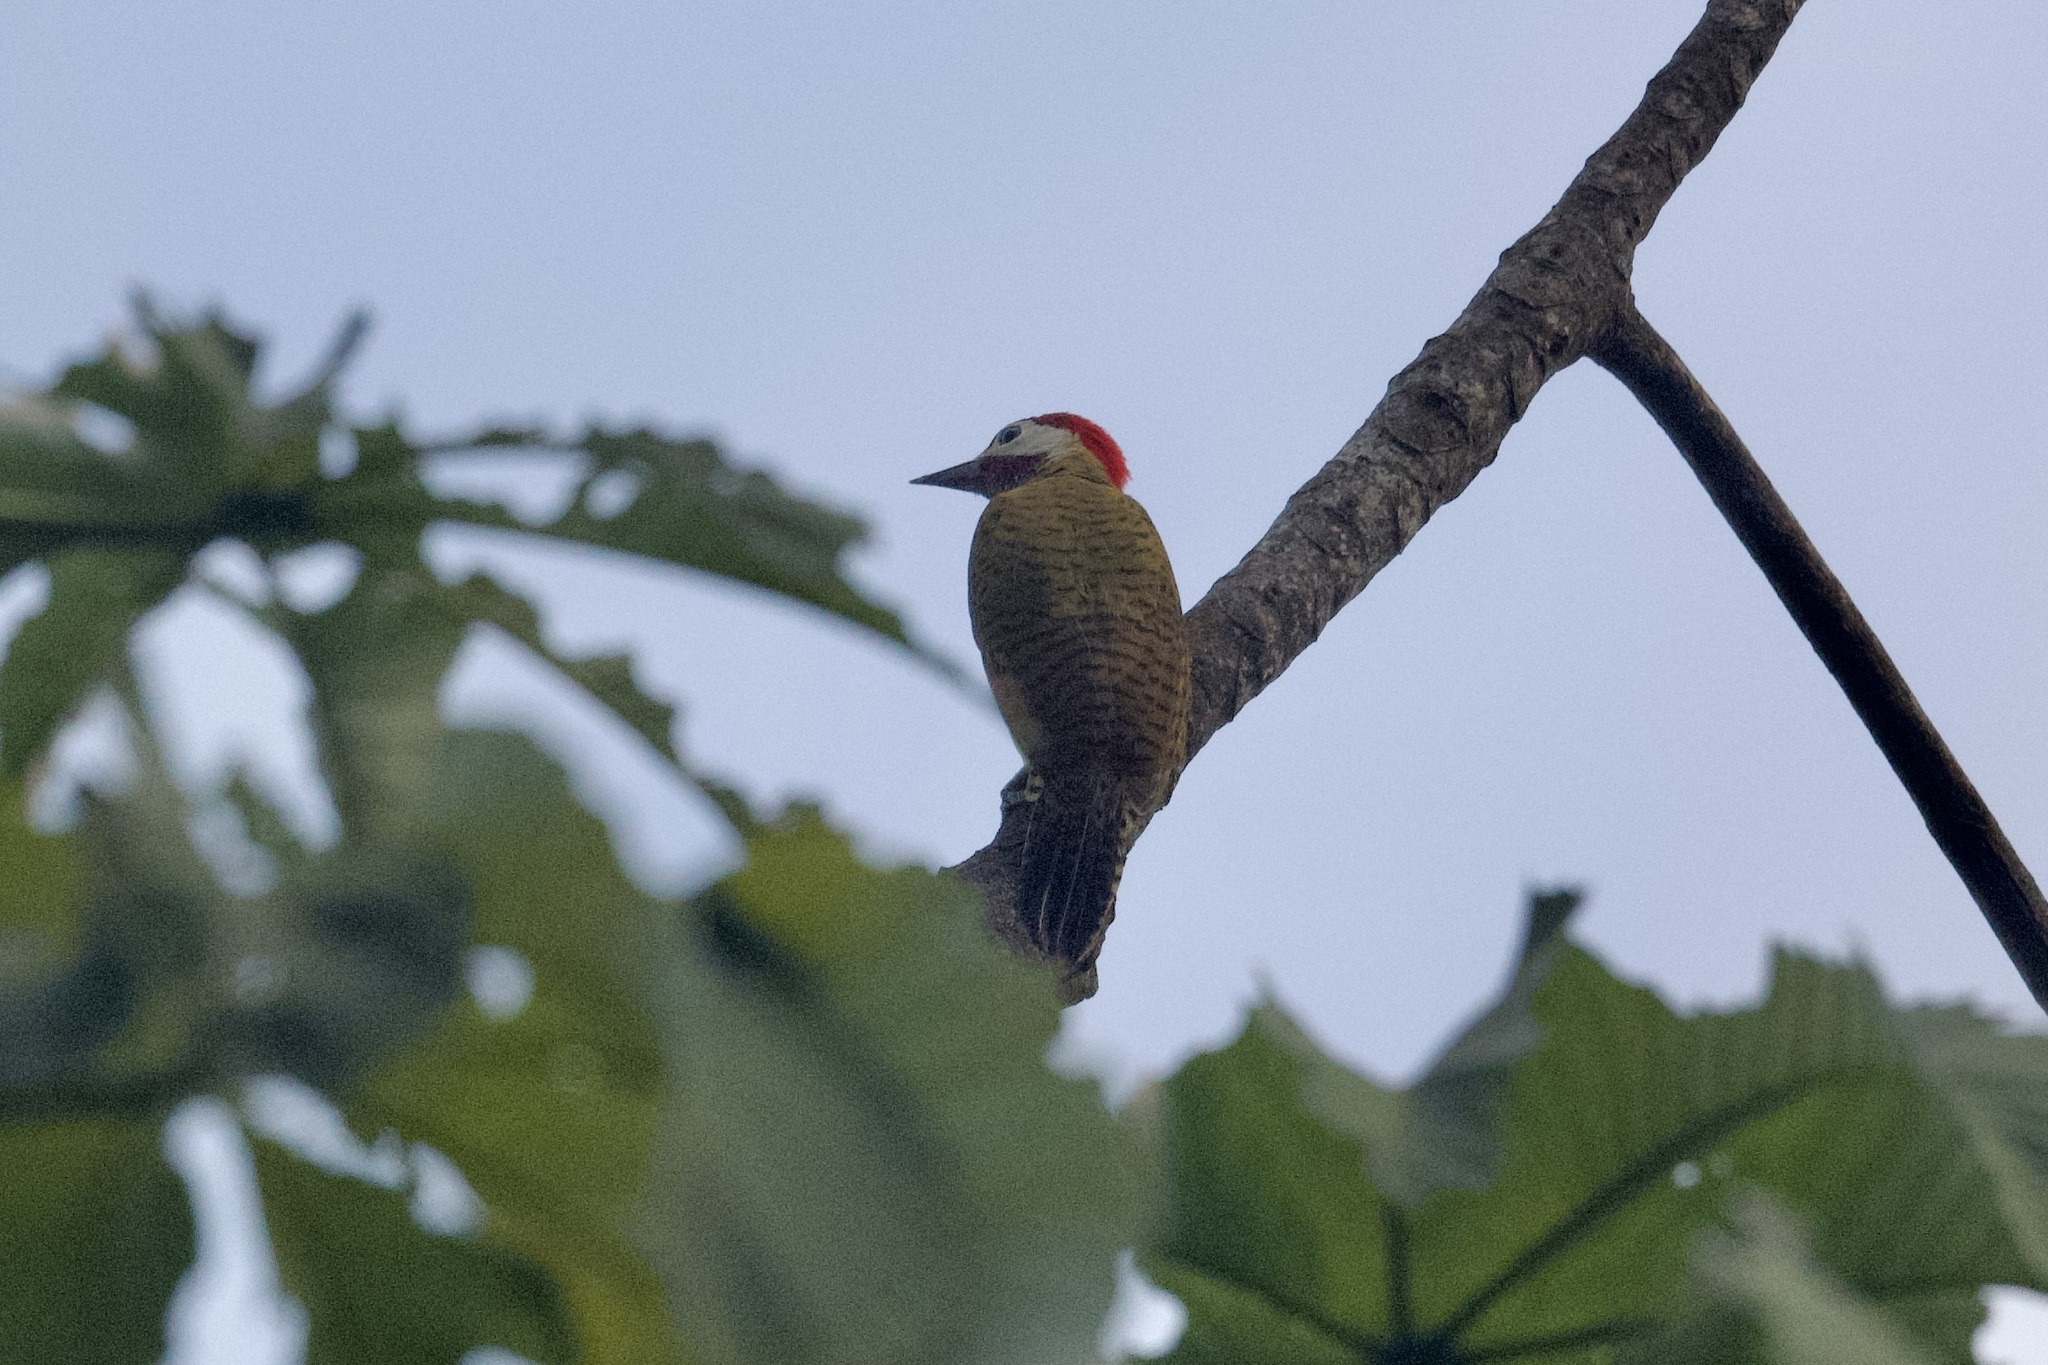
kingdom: Animalia
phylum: Chordata
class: Aves
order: Piciformes
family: Picidae
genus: Colaptes
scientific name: Colaptes punctigula
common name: Spot-breasted woodpecker
